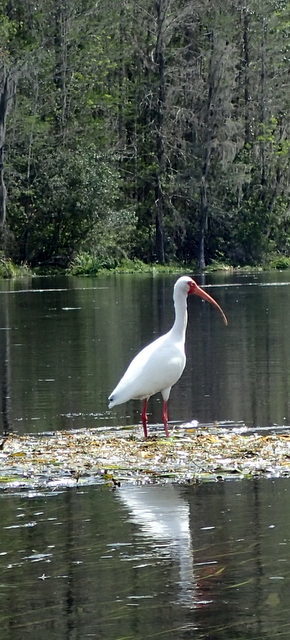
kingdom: Animalia
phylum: Chordata
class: Aves
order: Pelecaniformes
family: Threskiornithidae
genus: Eudocimus
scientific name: Eudocimus albus
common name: White ibis
